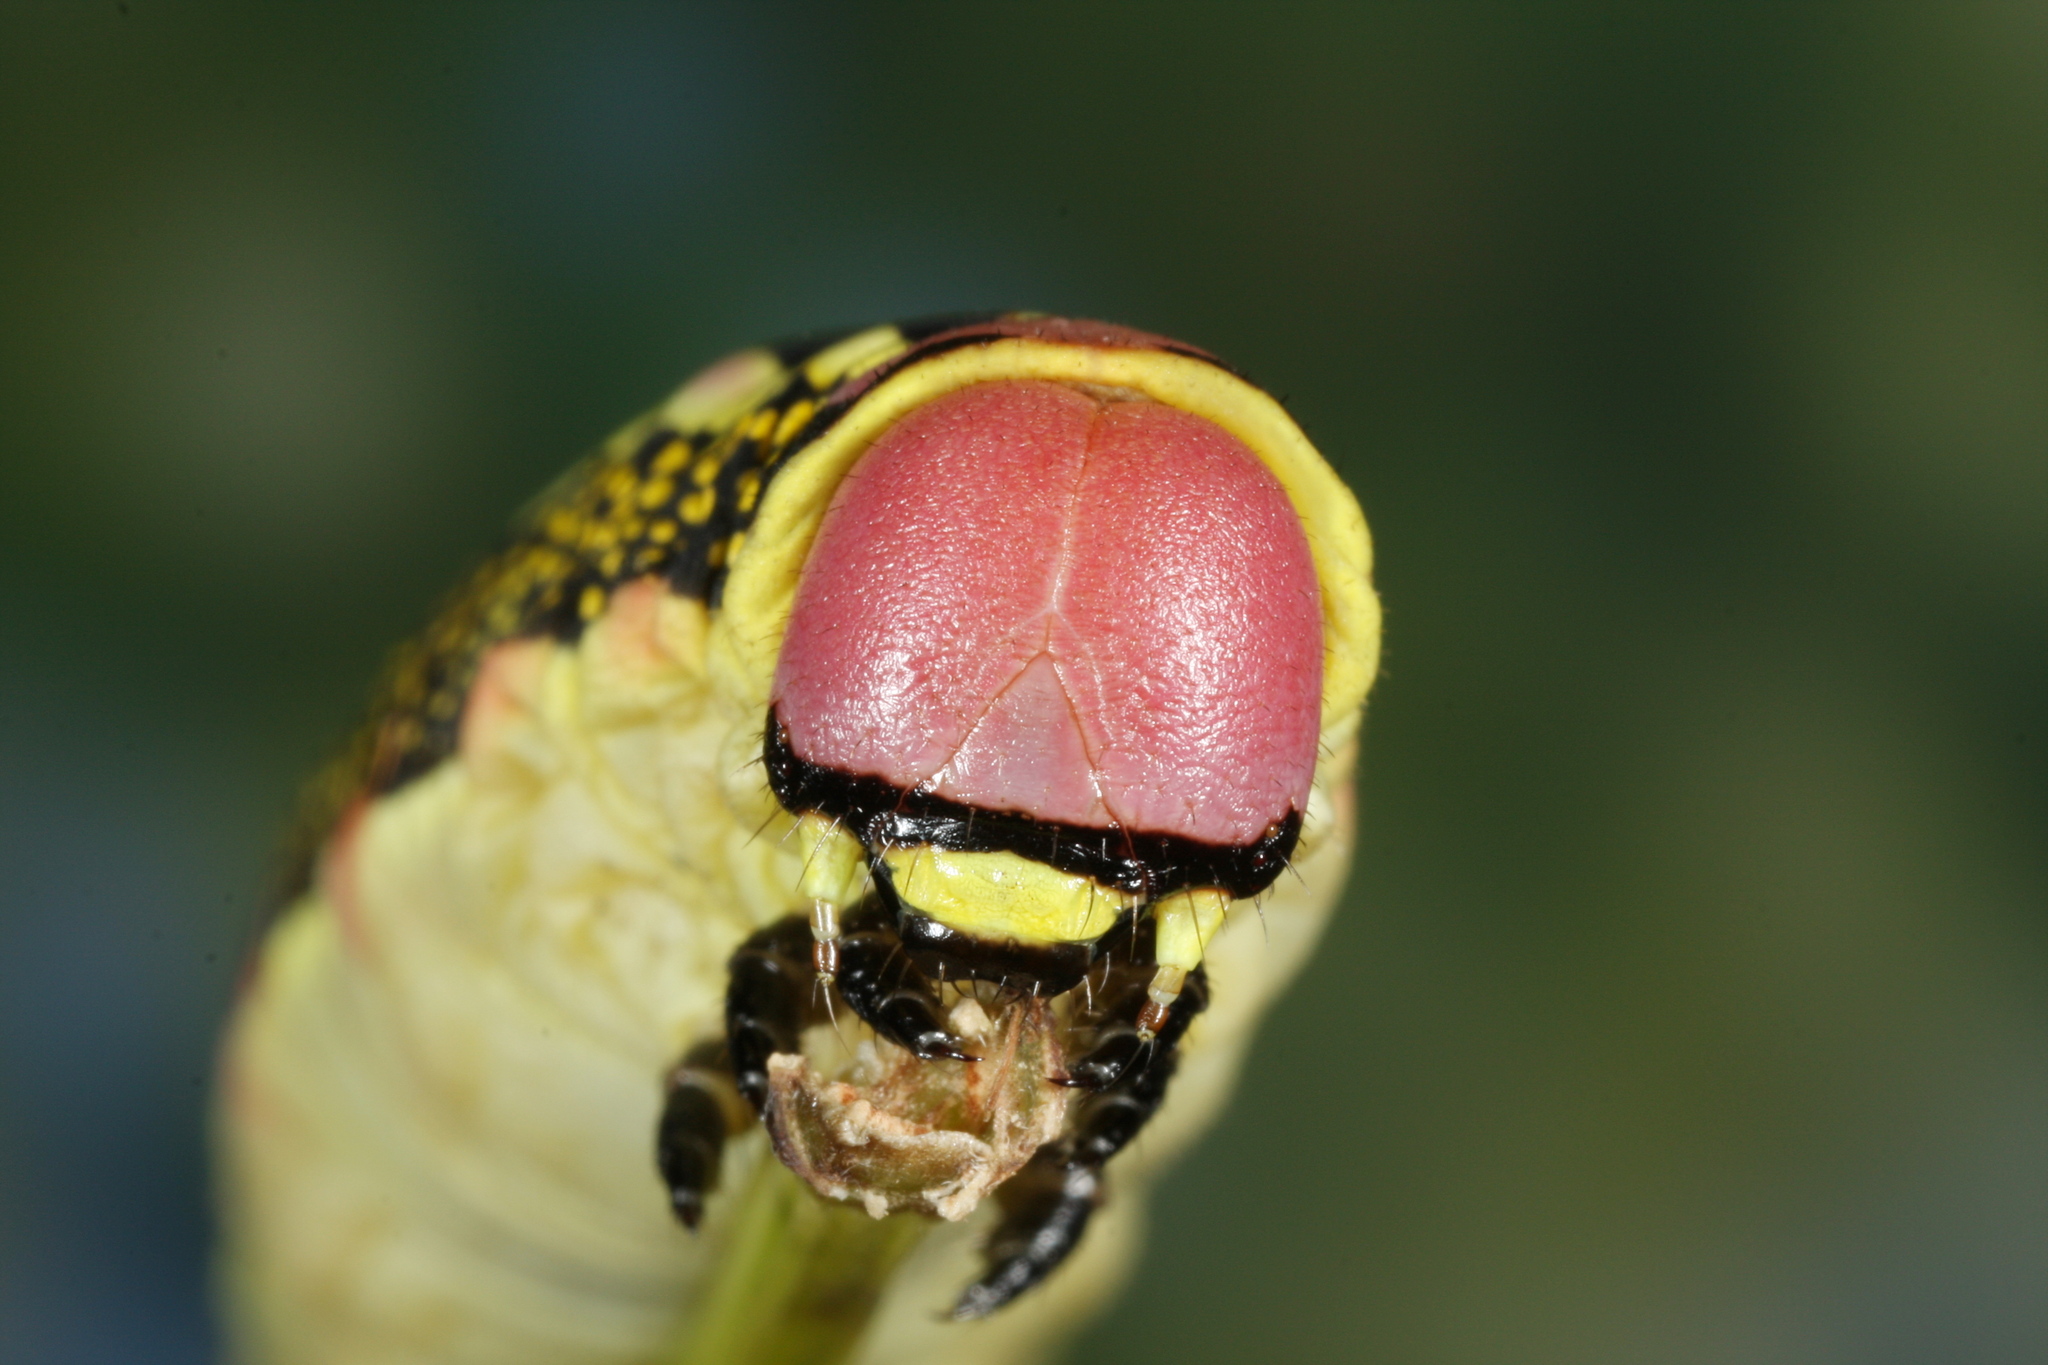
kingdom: Animalia
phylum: Arthropoda
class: Insecta
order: Lepidoptera
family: Sphingidae
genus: Hyles
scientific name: Hyles livornica
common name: Striped hawk-moth
